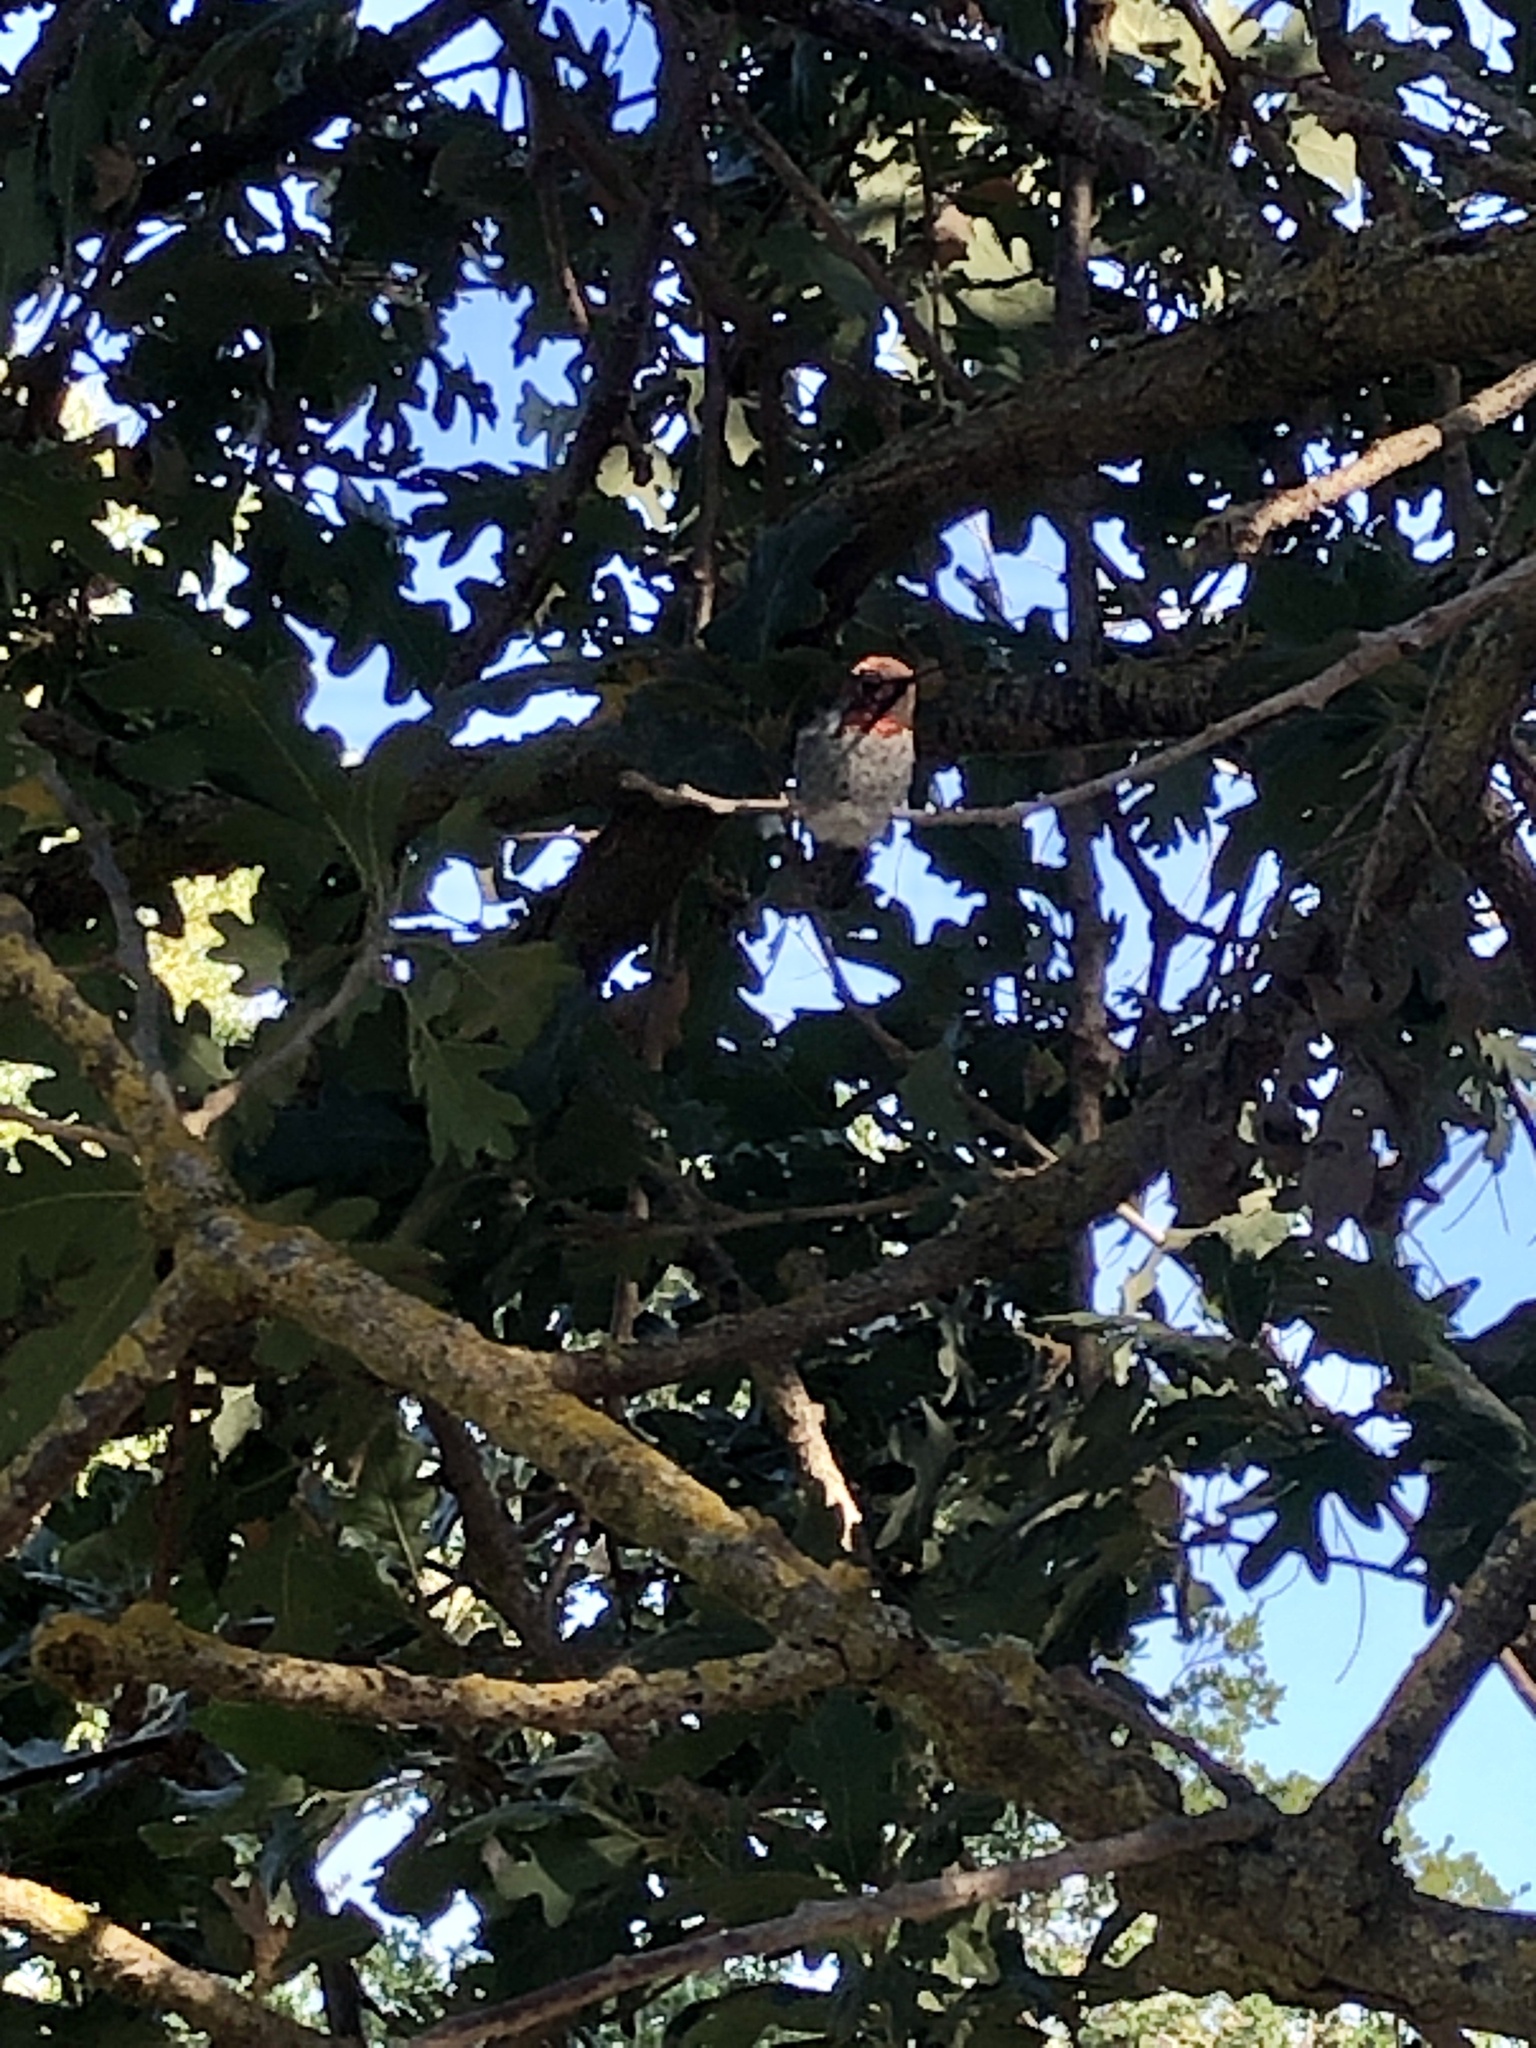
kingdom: Animalia
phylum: Chordata
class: Aves
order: Apodiformes
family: Trochilidae
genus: Calypte
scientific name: Calypte anna
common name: Anna's hummingbird
